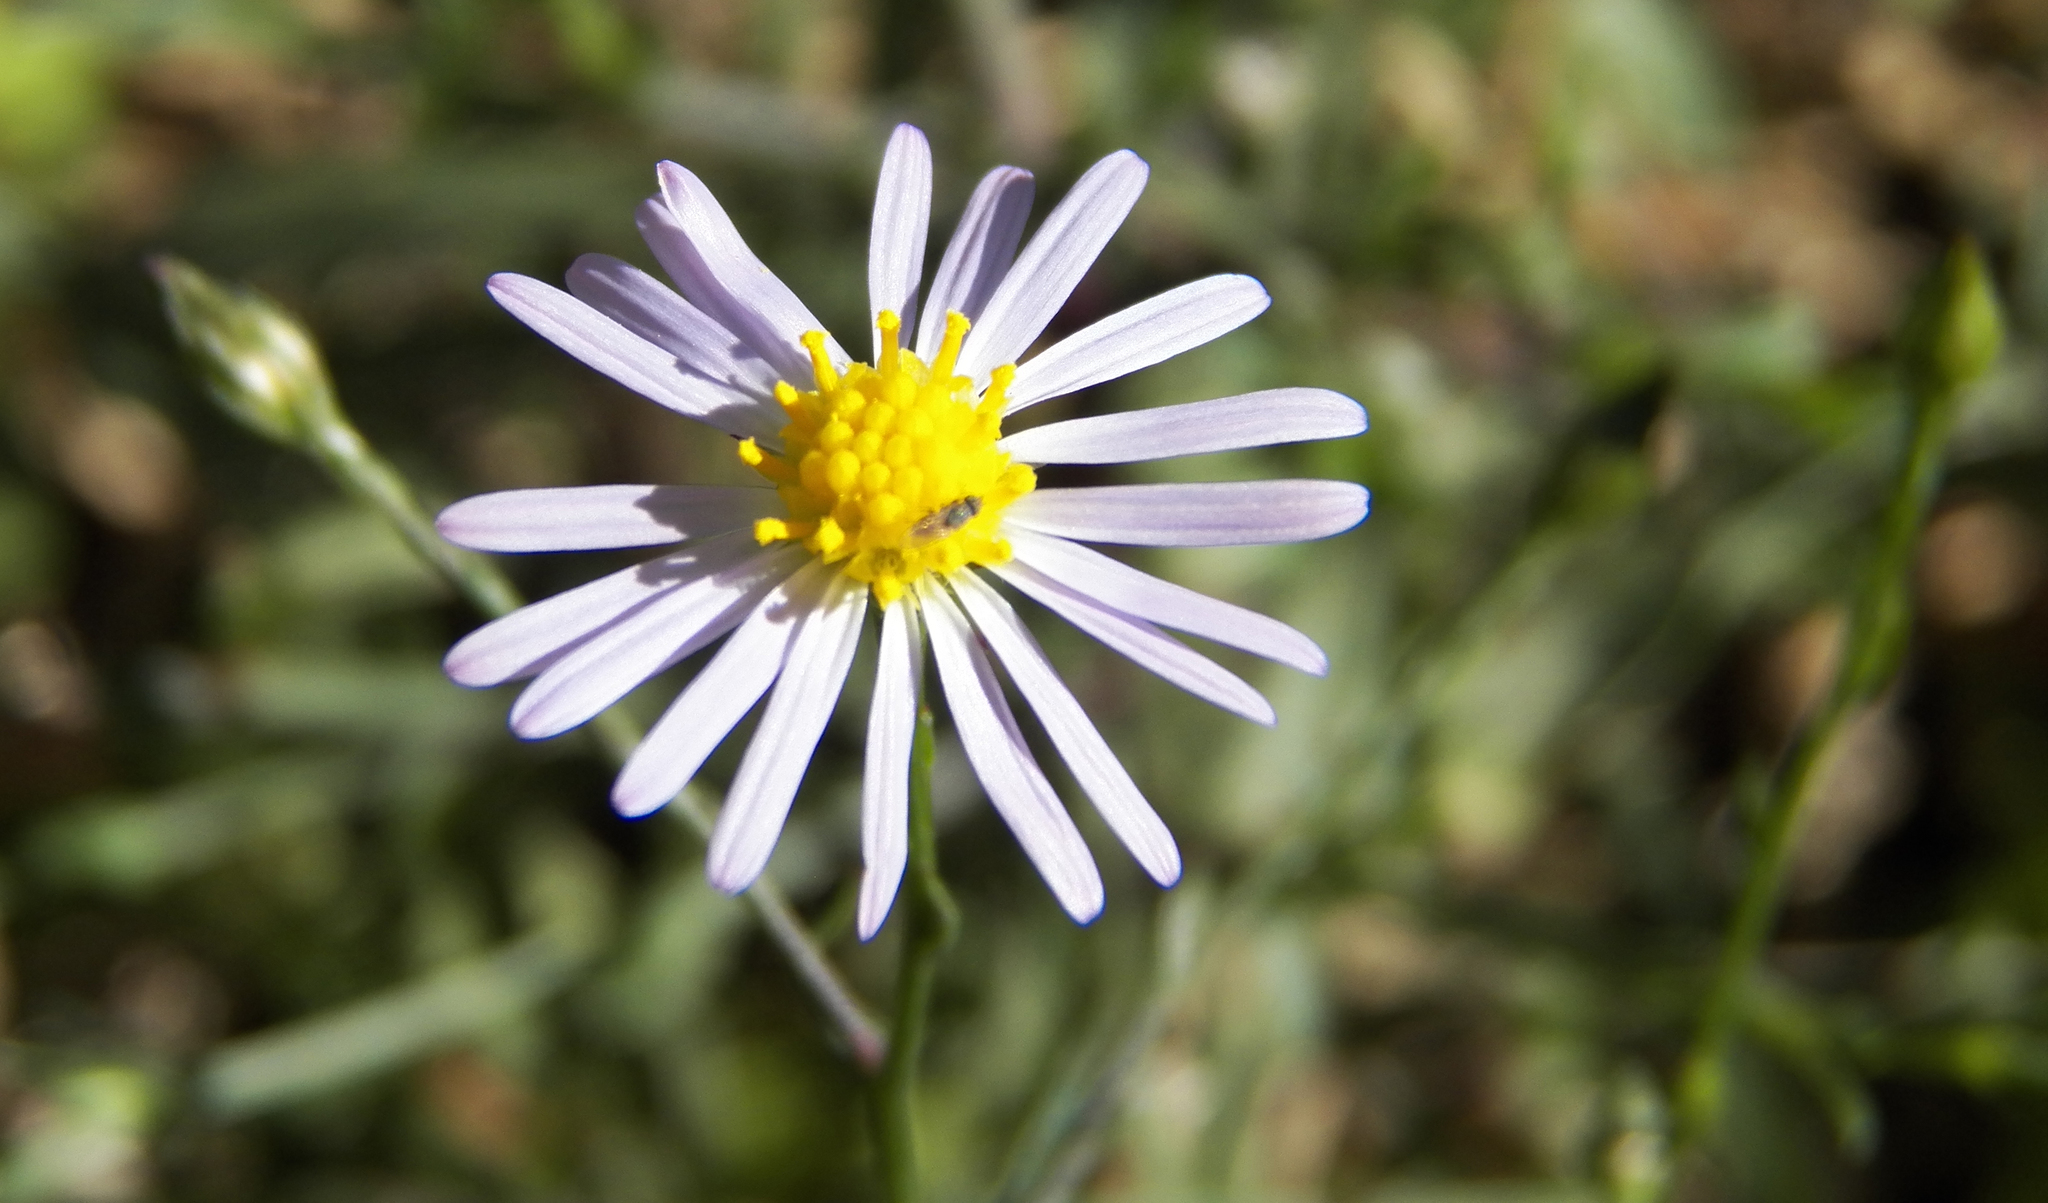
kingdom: Plantae
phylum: Tracheophyta
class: Magnoliopsida
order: Asterales
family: Asteraceae
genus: Symphyotrichum
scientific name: Symphyotrichum divaricatum
